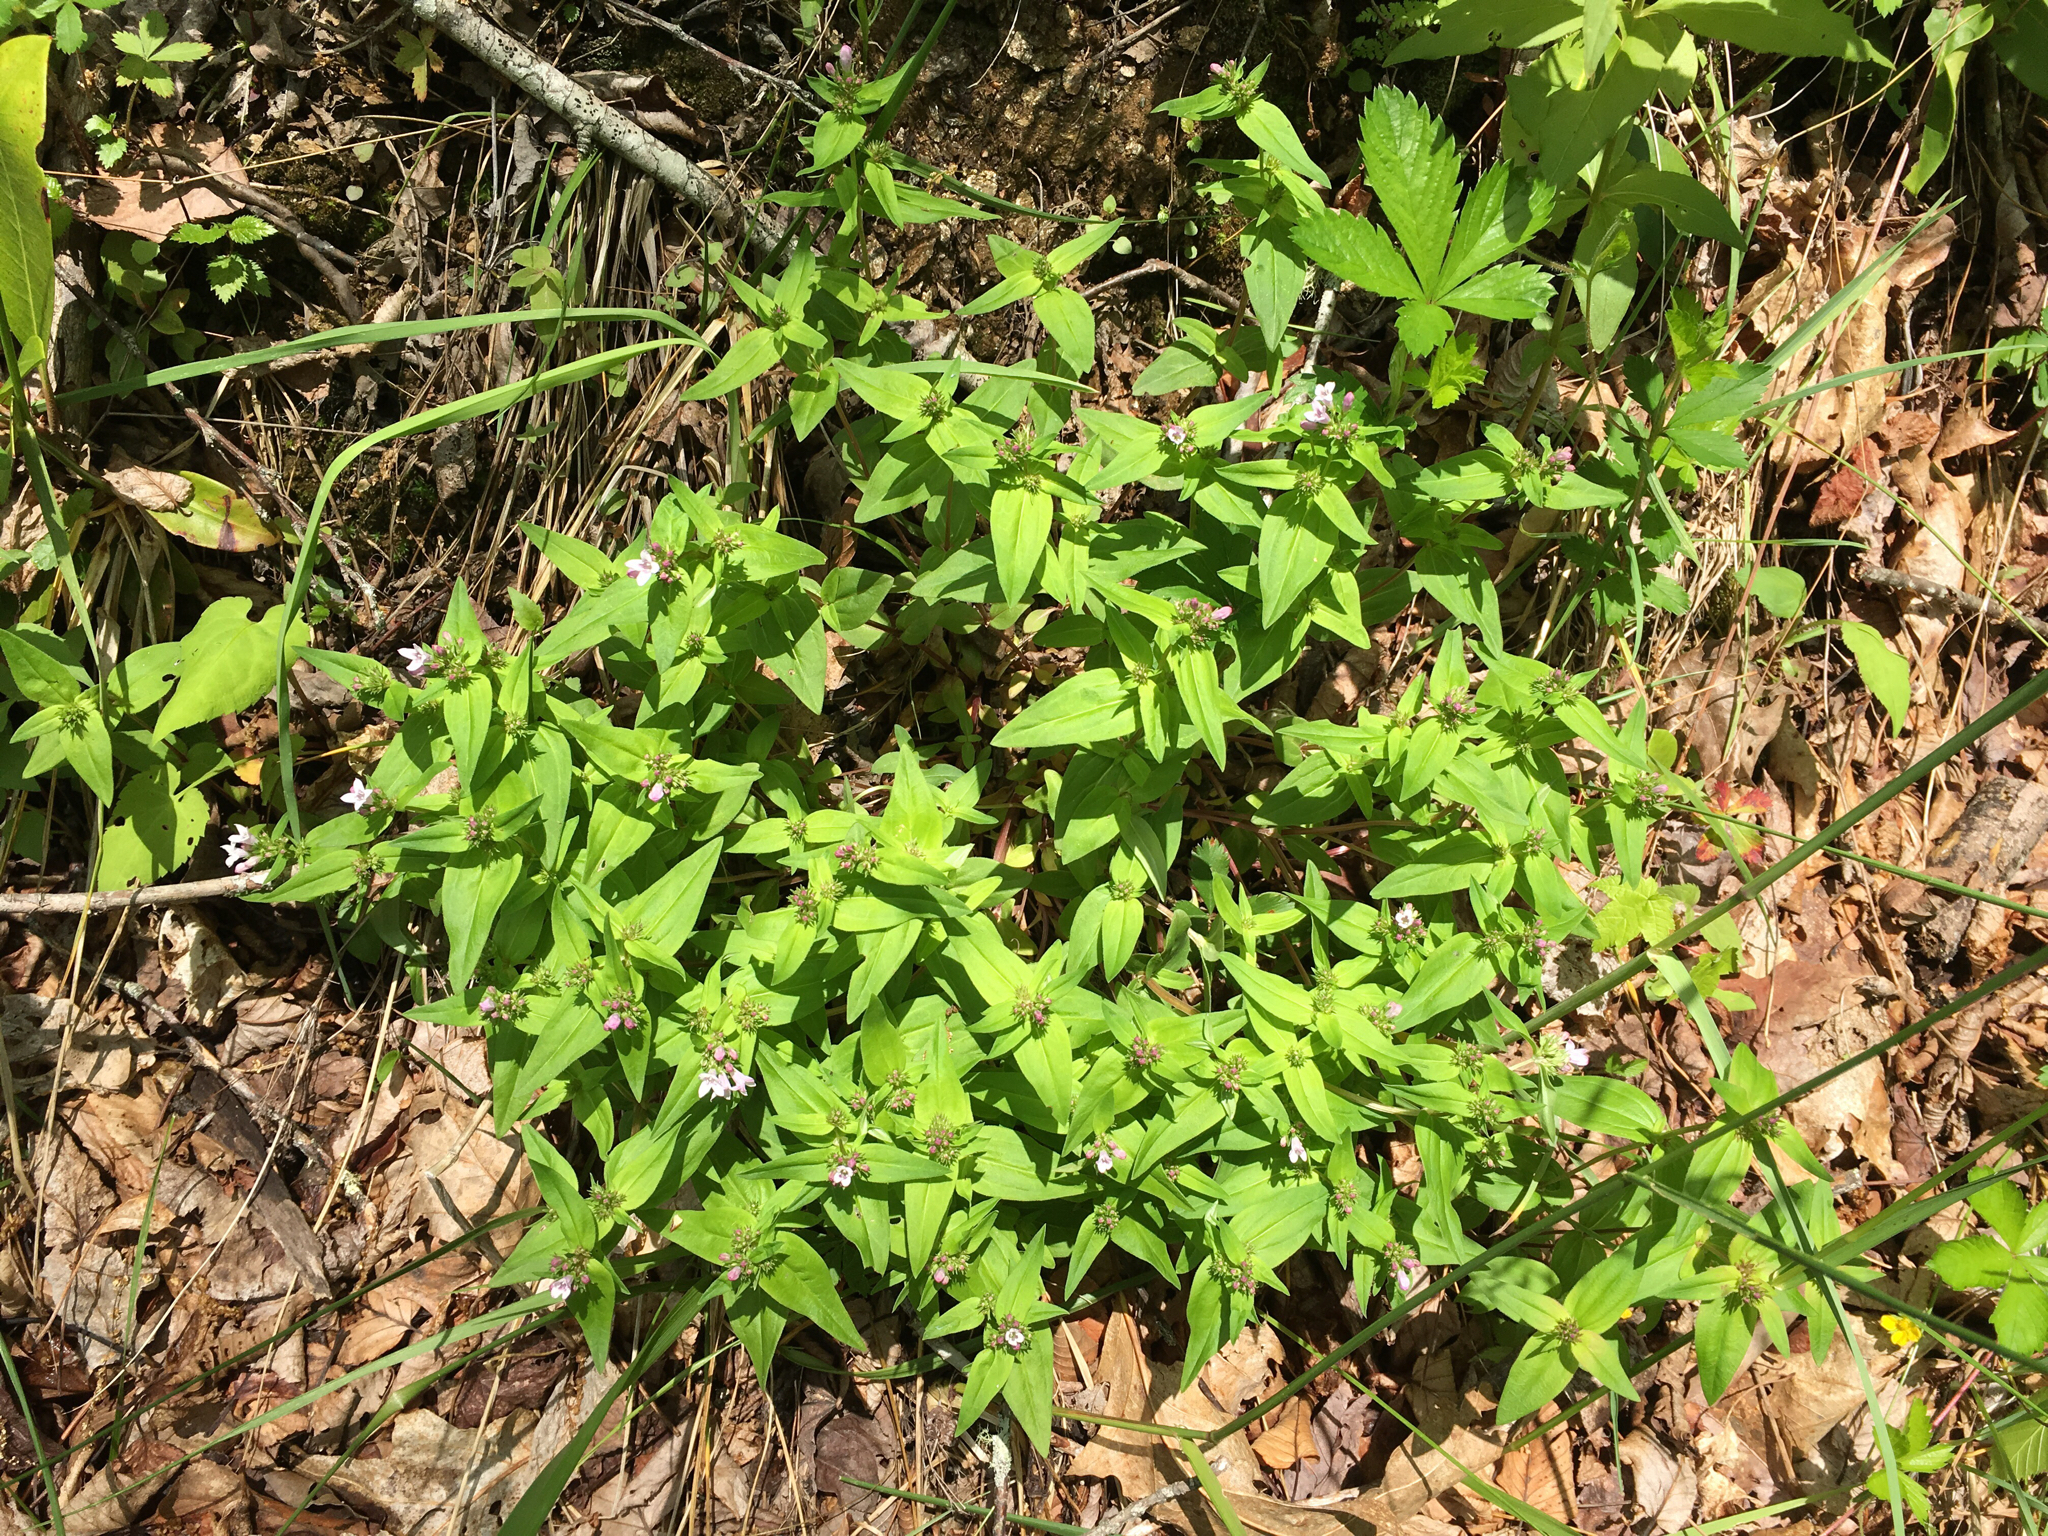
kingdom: Plantae
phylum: Tracheophyta
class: Magnoliopsida
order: Gentianales
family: Rubiaceae
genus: Houstonia
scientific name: Houstonia purpurea
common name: Summer bluet
